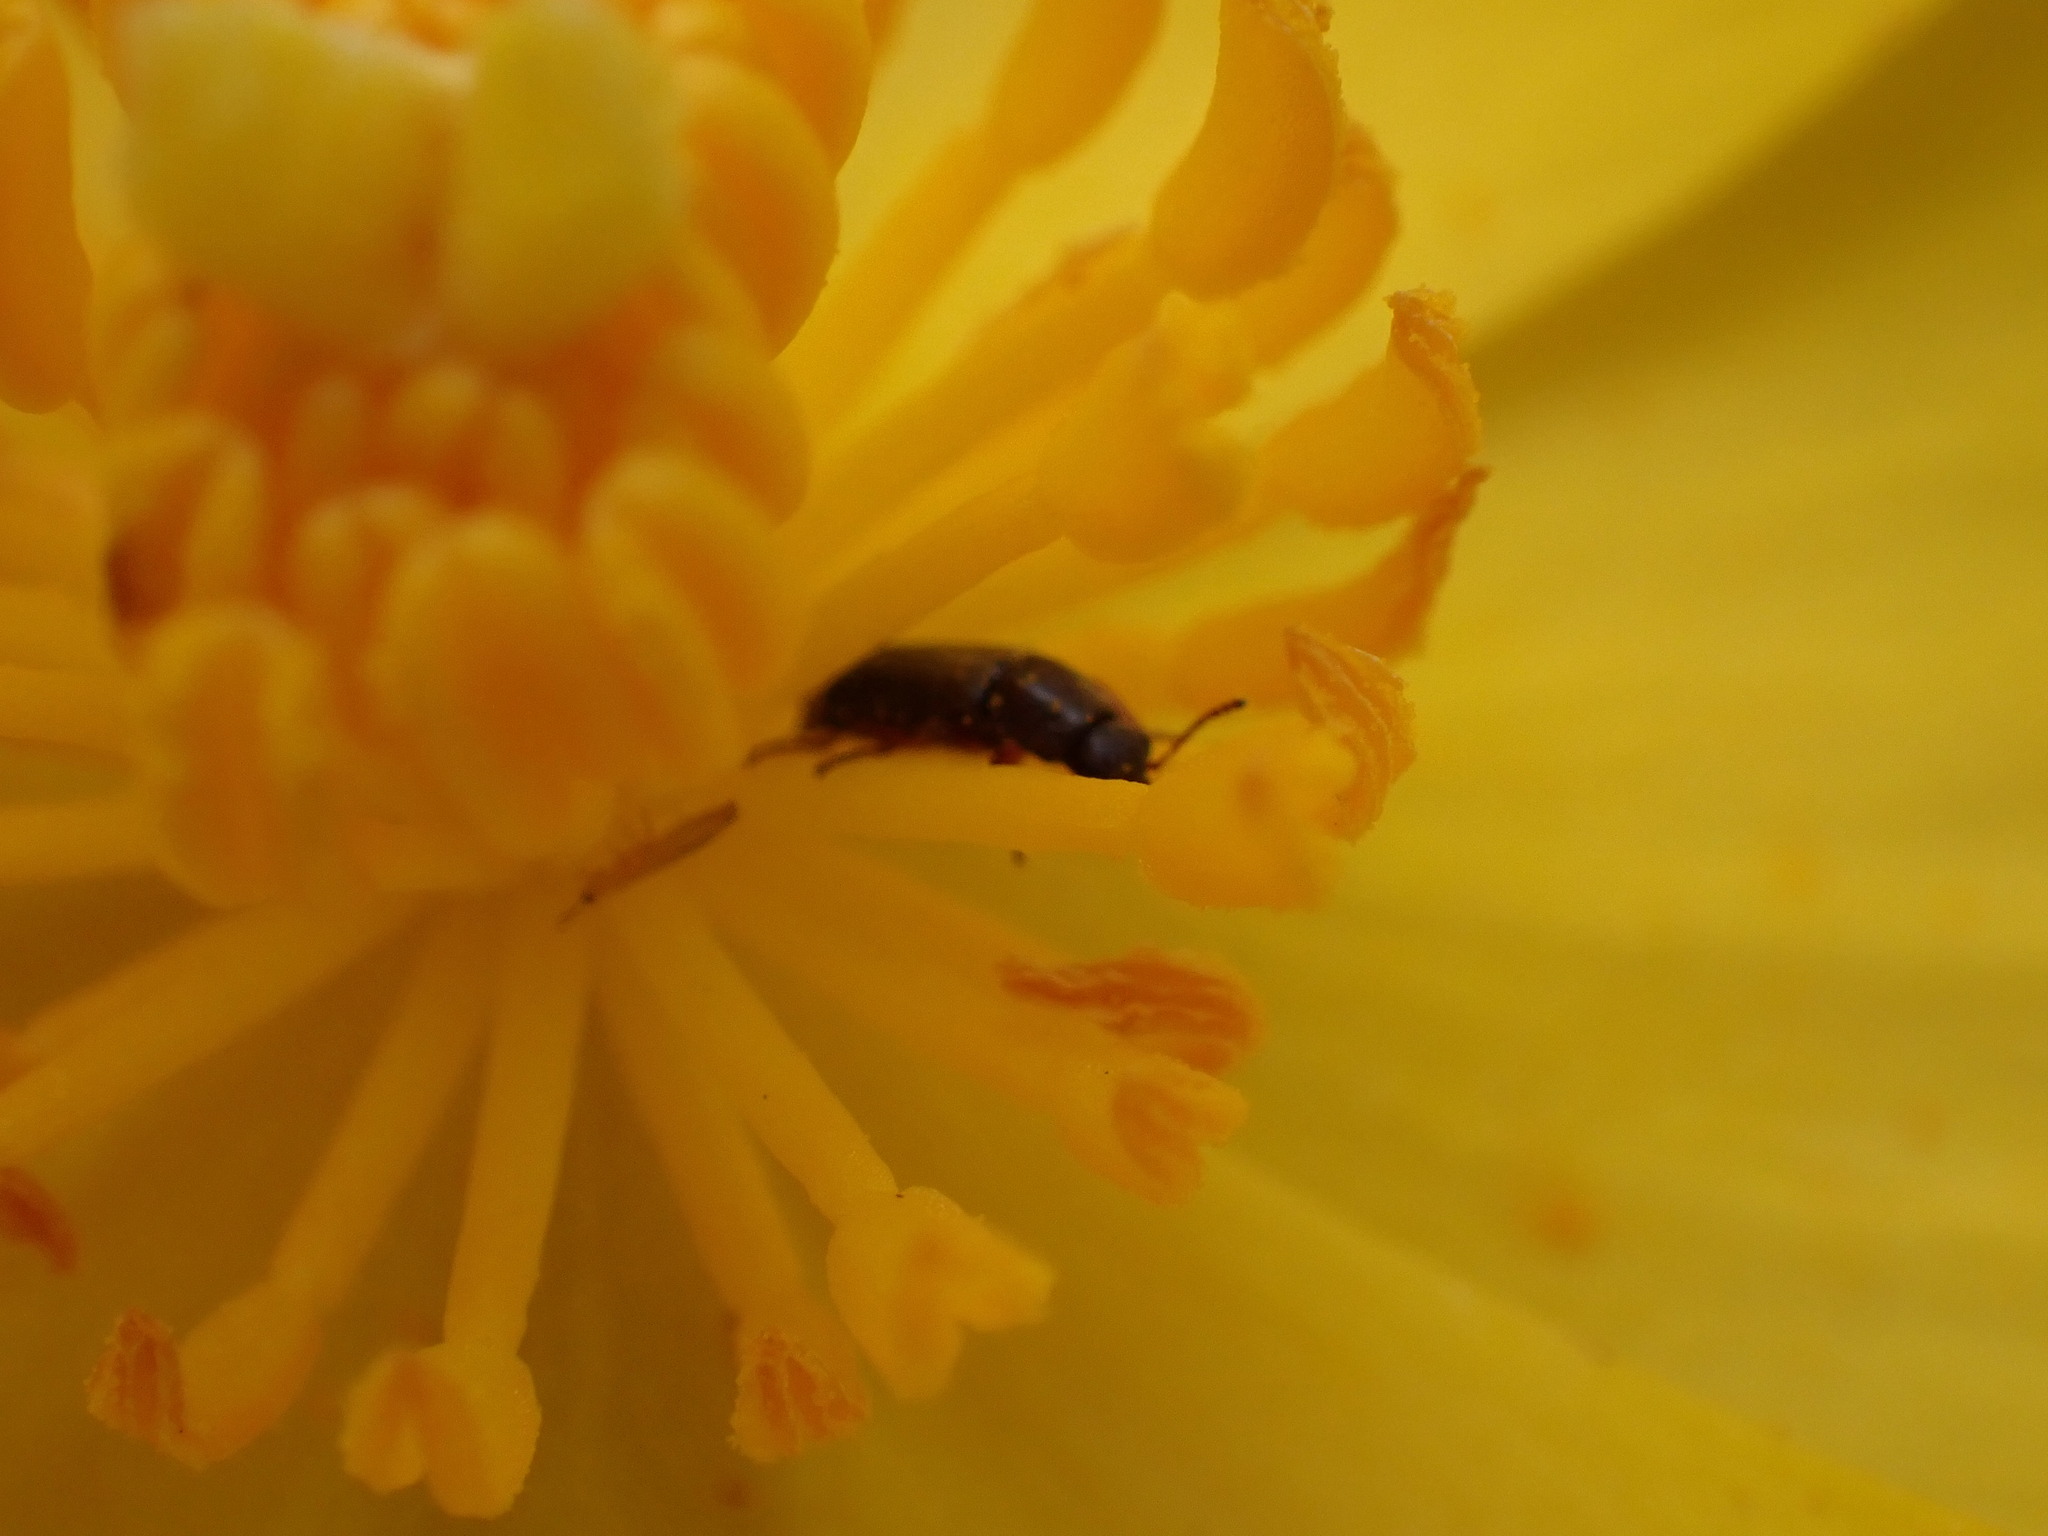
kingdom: Plantae
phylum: Tracheophyta
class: Magnoliopsida
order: Ranunculales
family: Papaveraceae
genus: Dendromecon
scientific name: Dendromecon rigida
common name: Tree poppy
